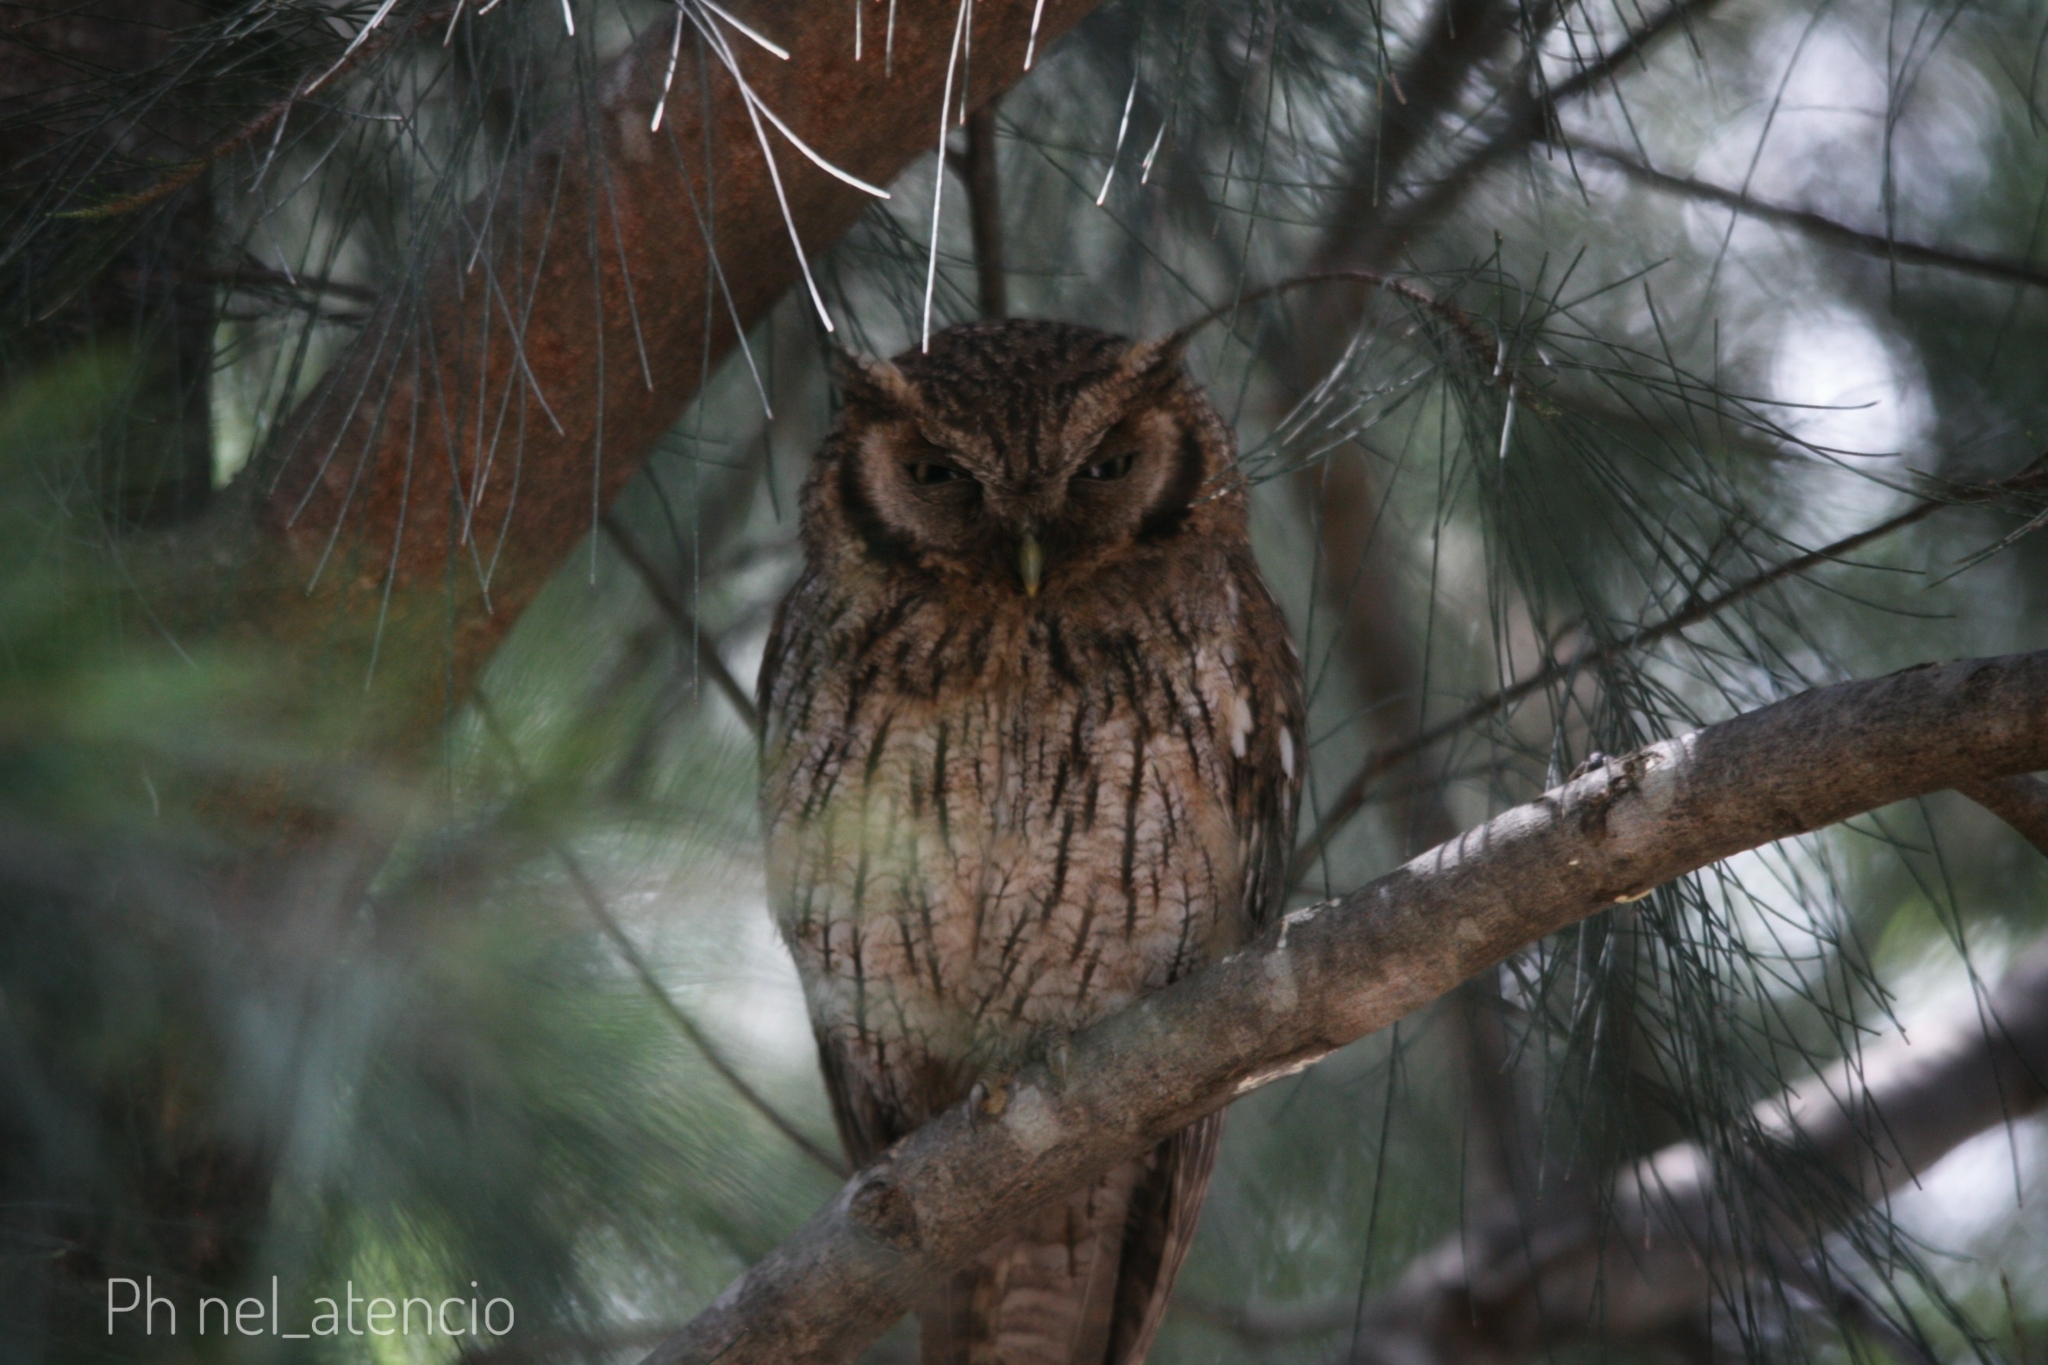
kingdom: Animalia
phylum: Chordata
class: Aves
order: Strigiformes
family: Strigidae
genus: Megascops
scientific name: Megascops choliba
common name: Tropical screech-owl
